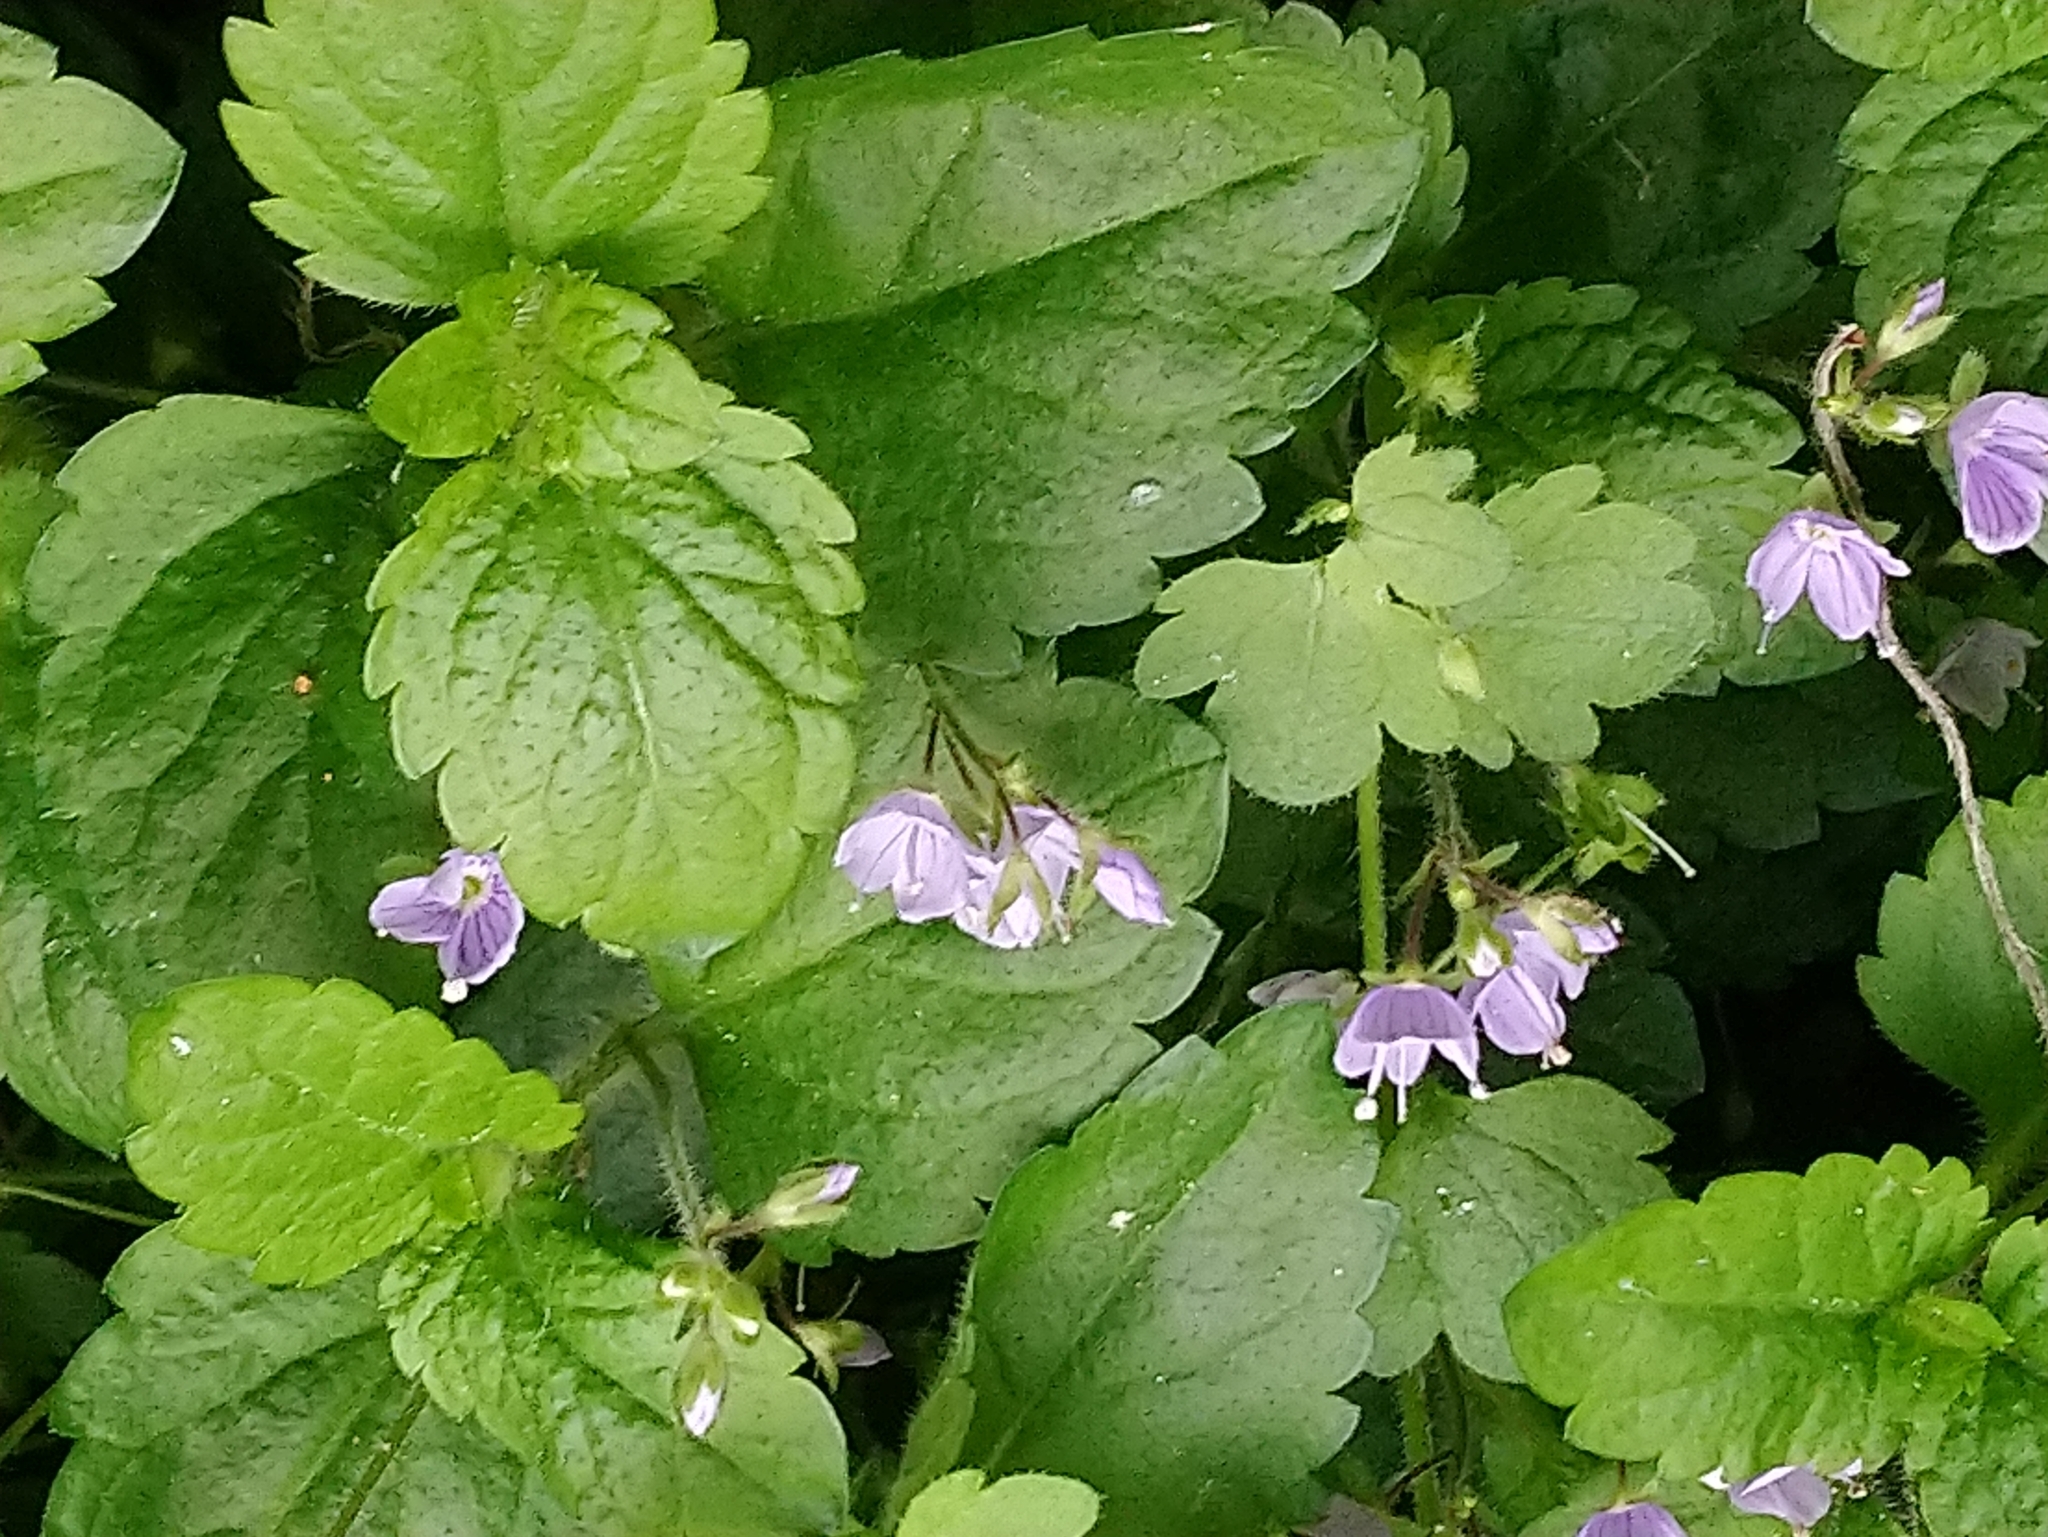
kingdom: Plantae
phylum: Tracheophyta
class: Magnoliopsida
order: Lamiales
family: Plantaginaceae
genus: Veronica
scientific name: Veronica montana
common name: Wood speedwell
